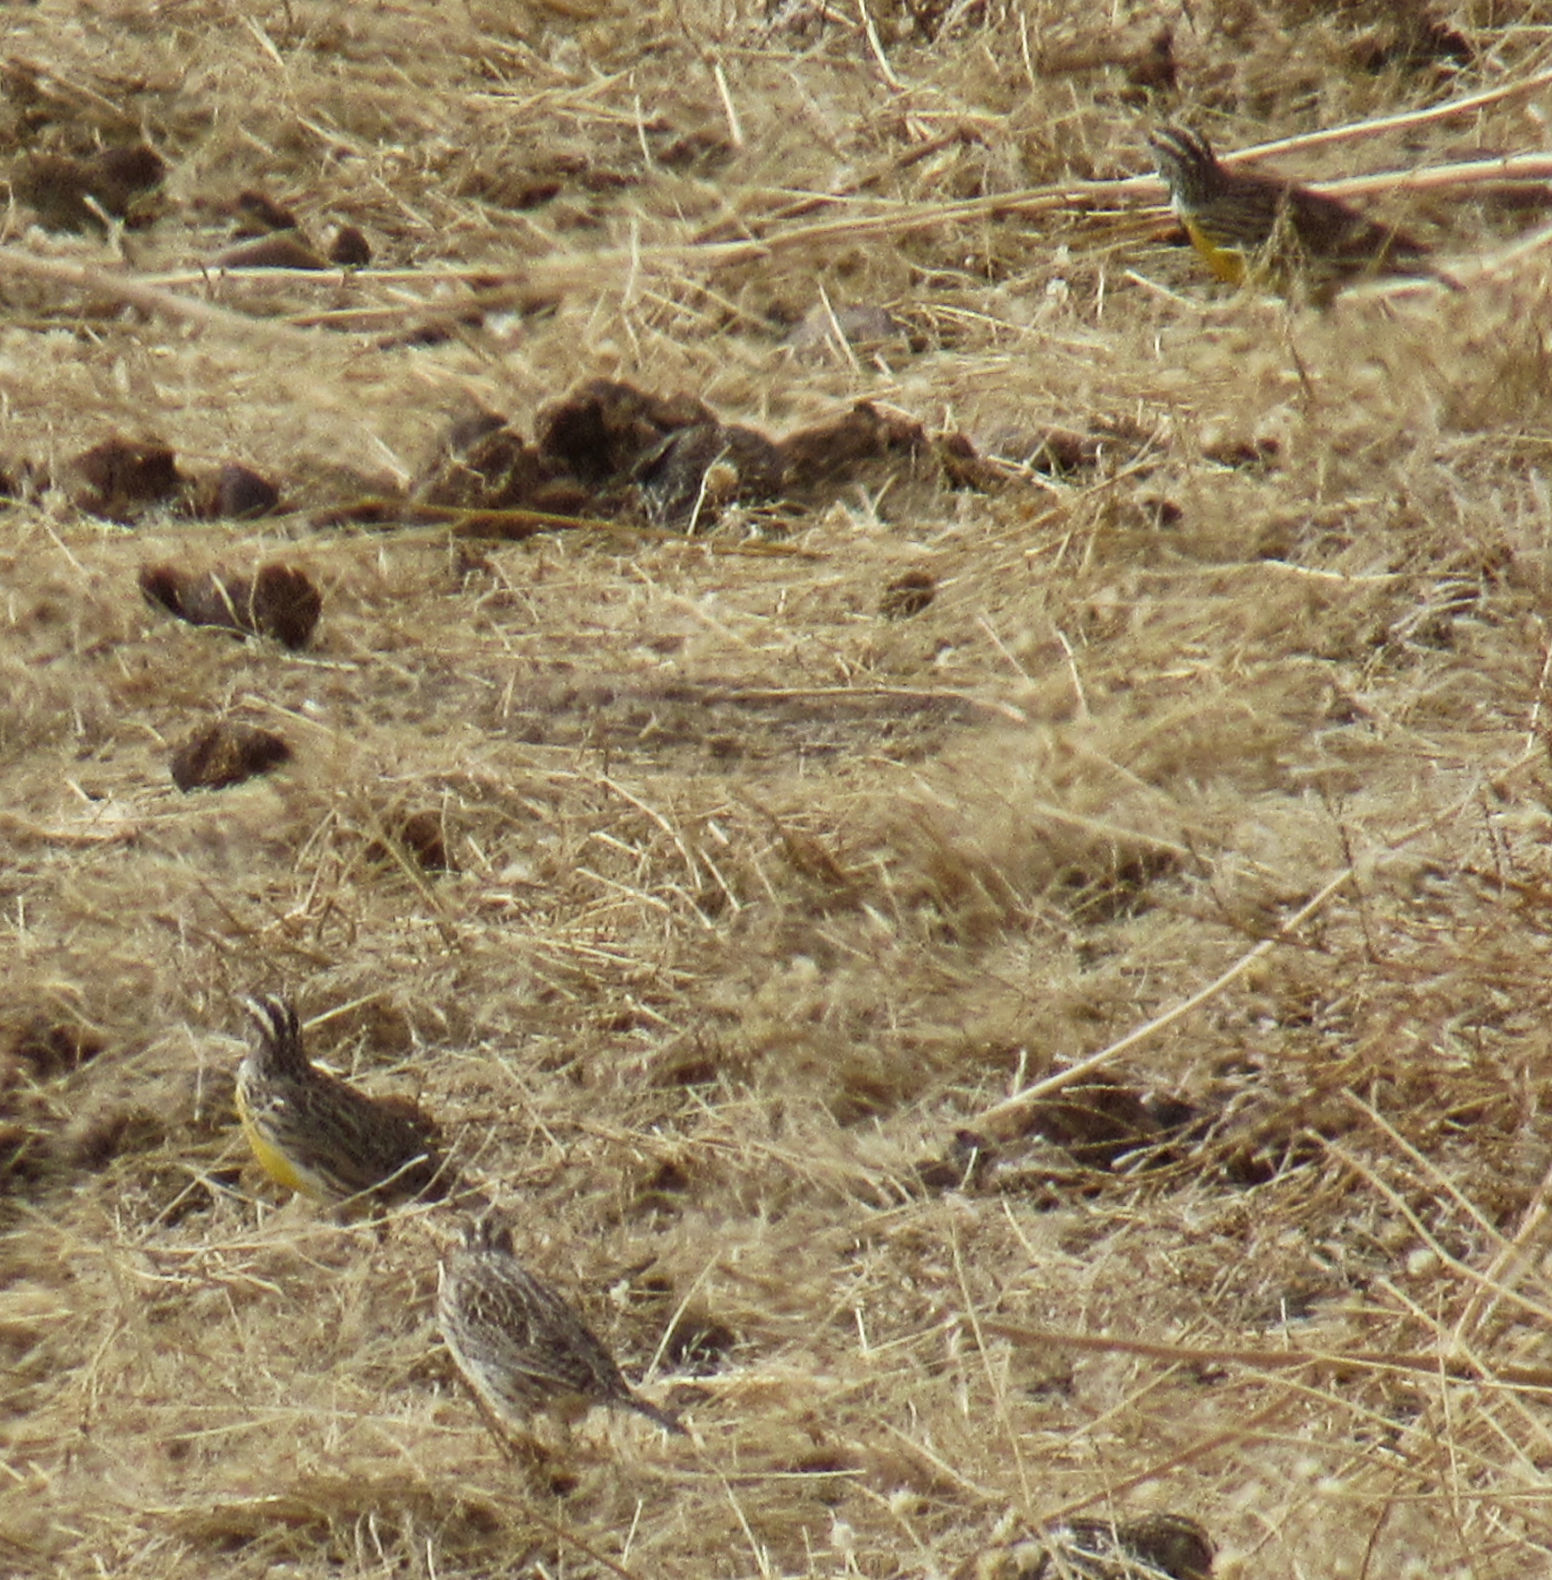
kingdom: Animalia
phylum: Chordata
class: Aves
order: Passeriformes
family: Icteridae
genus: Sturnella
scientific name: Sturnella neglecta
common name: Western meadowlark
